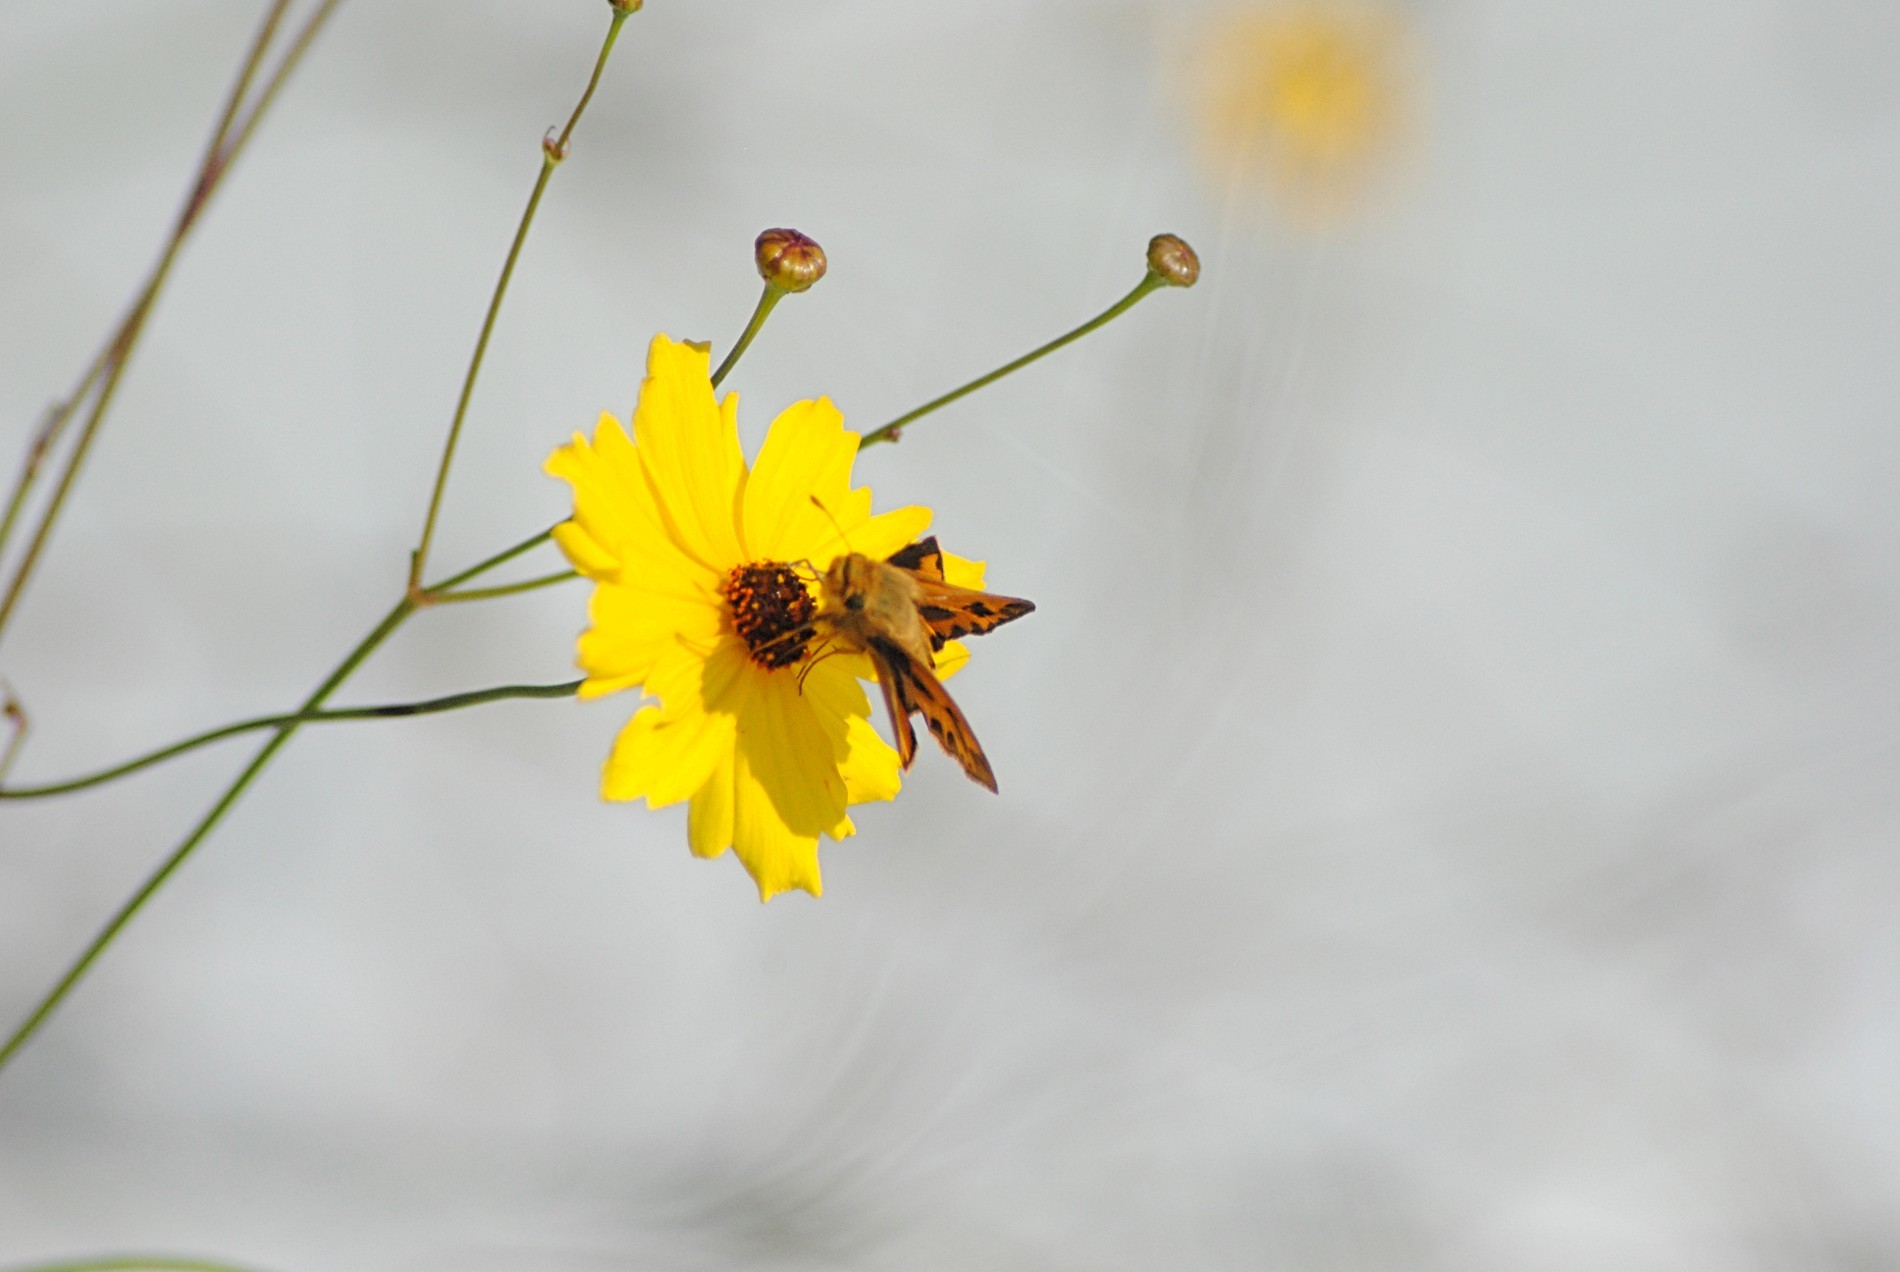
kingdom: Animalia
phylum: Arthropoda
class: Insecta
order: Lepidoptera
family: Hesperiidae
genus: Hylephila
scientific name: Hylephila phyleus
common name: Fiery skipper
